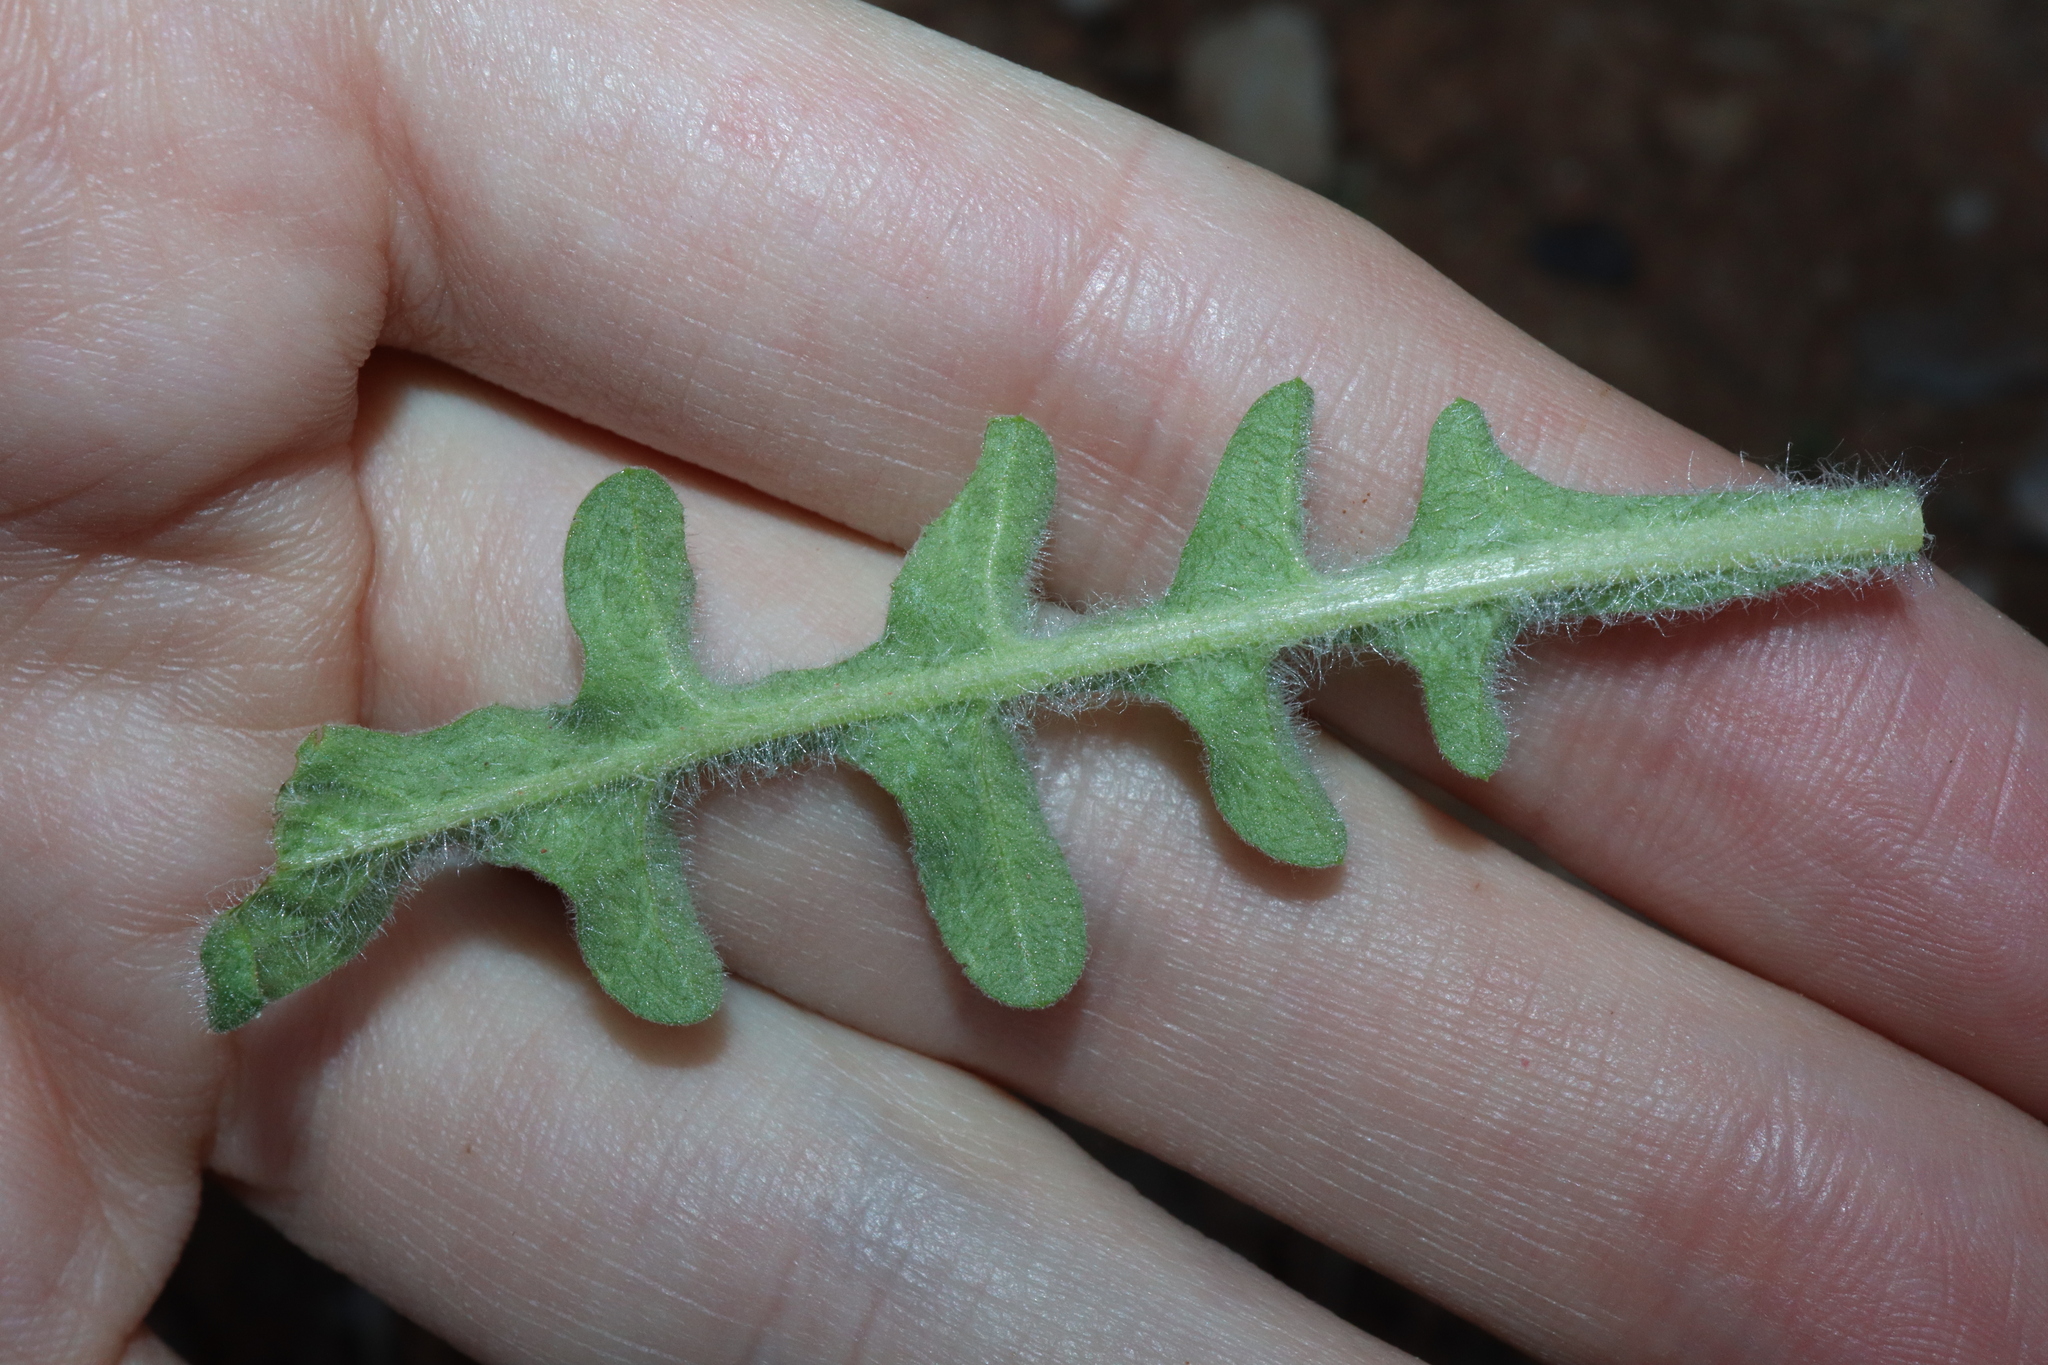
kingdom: Plantae
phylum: Tracheophyta
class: Magnoliopsida
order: Asterales
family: Asteraceae
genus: Centaurea
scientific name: Centaurea melitensis
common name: Maltese star-thistle
